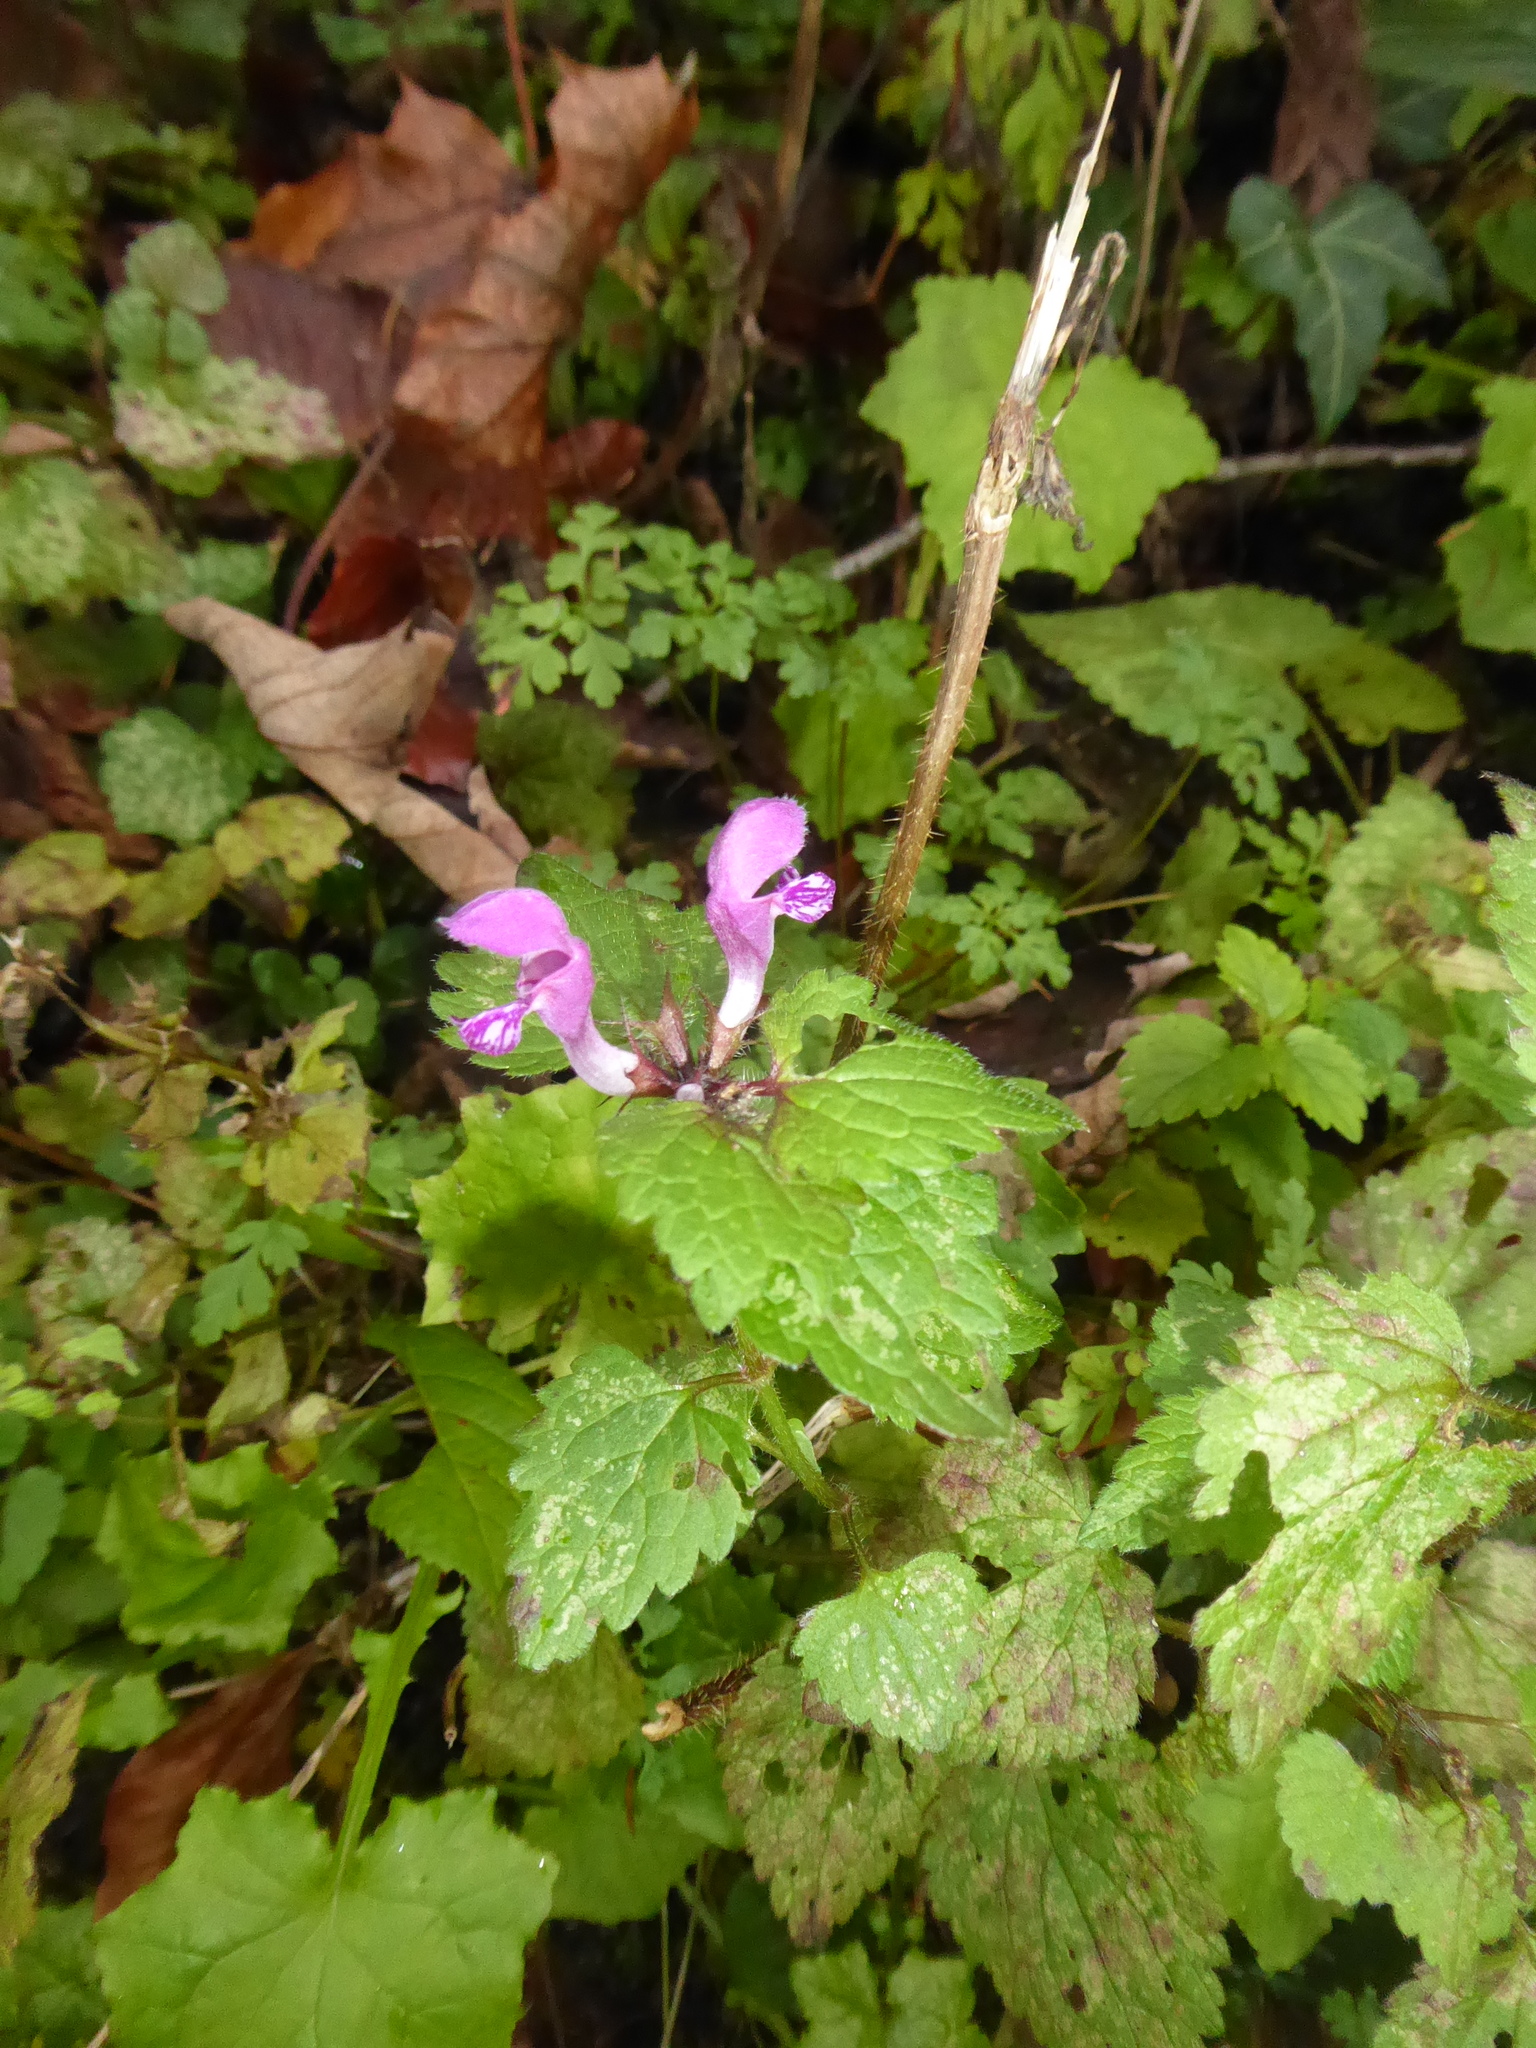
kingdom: Plantae
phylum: Tracheophyta
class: Magnoliopsida
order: Lamiales
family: Lamiaceae
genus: Lamium
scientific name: Lamium maculatum
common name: Spotted dead-nettle
